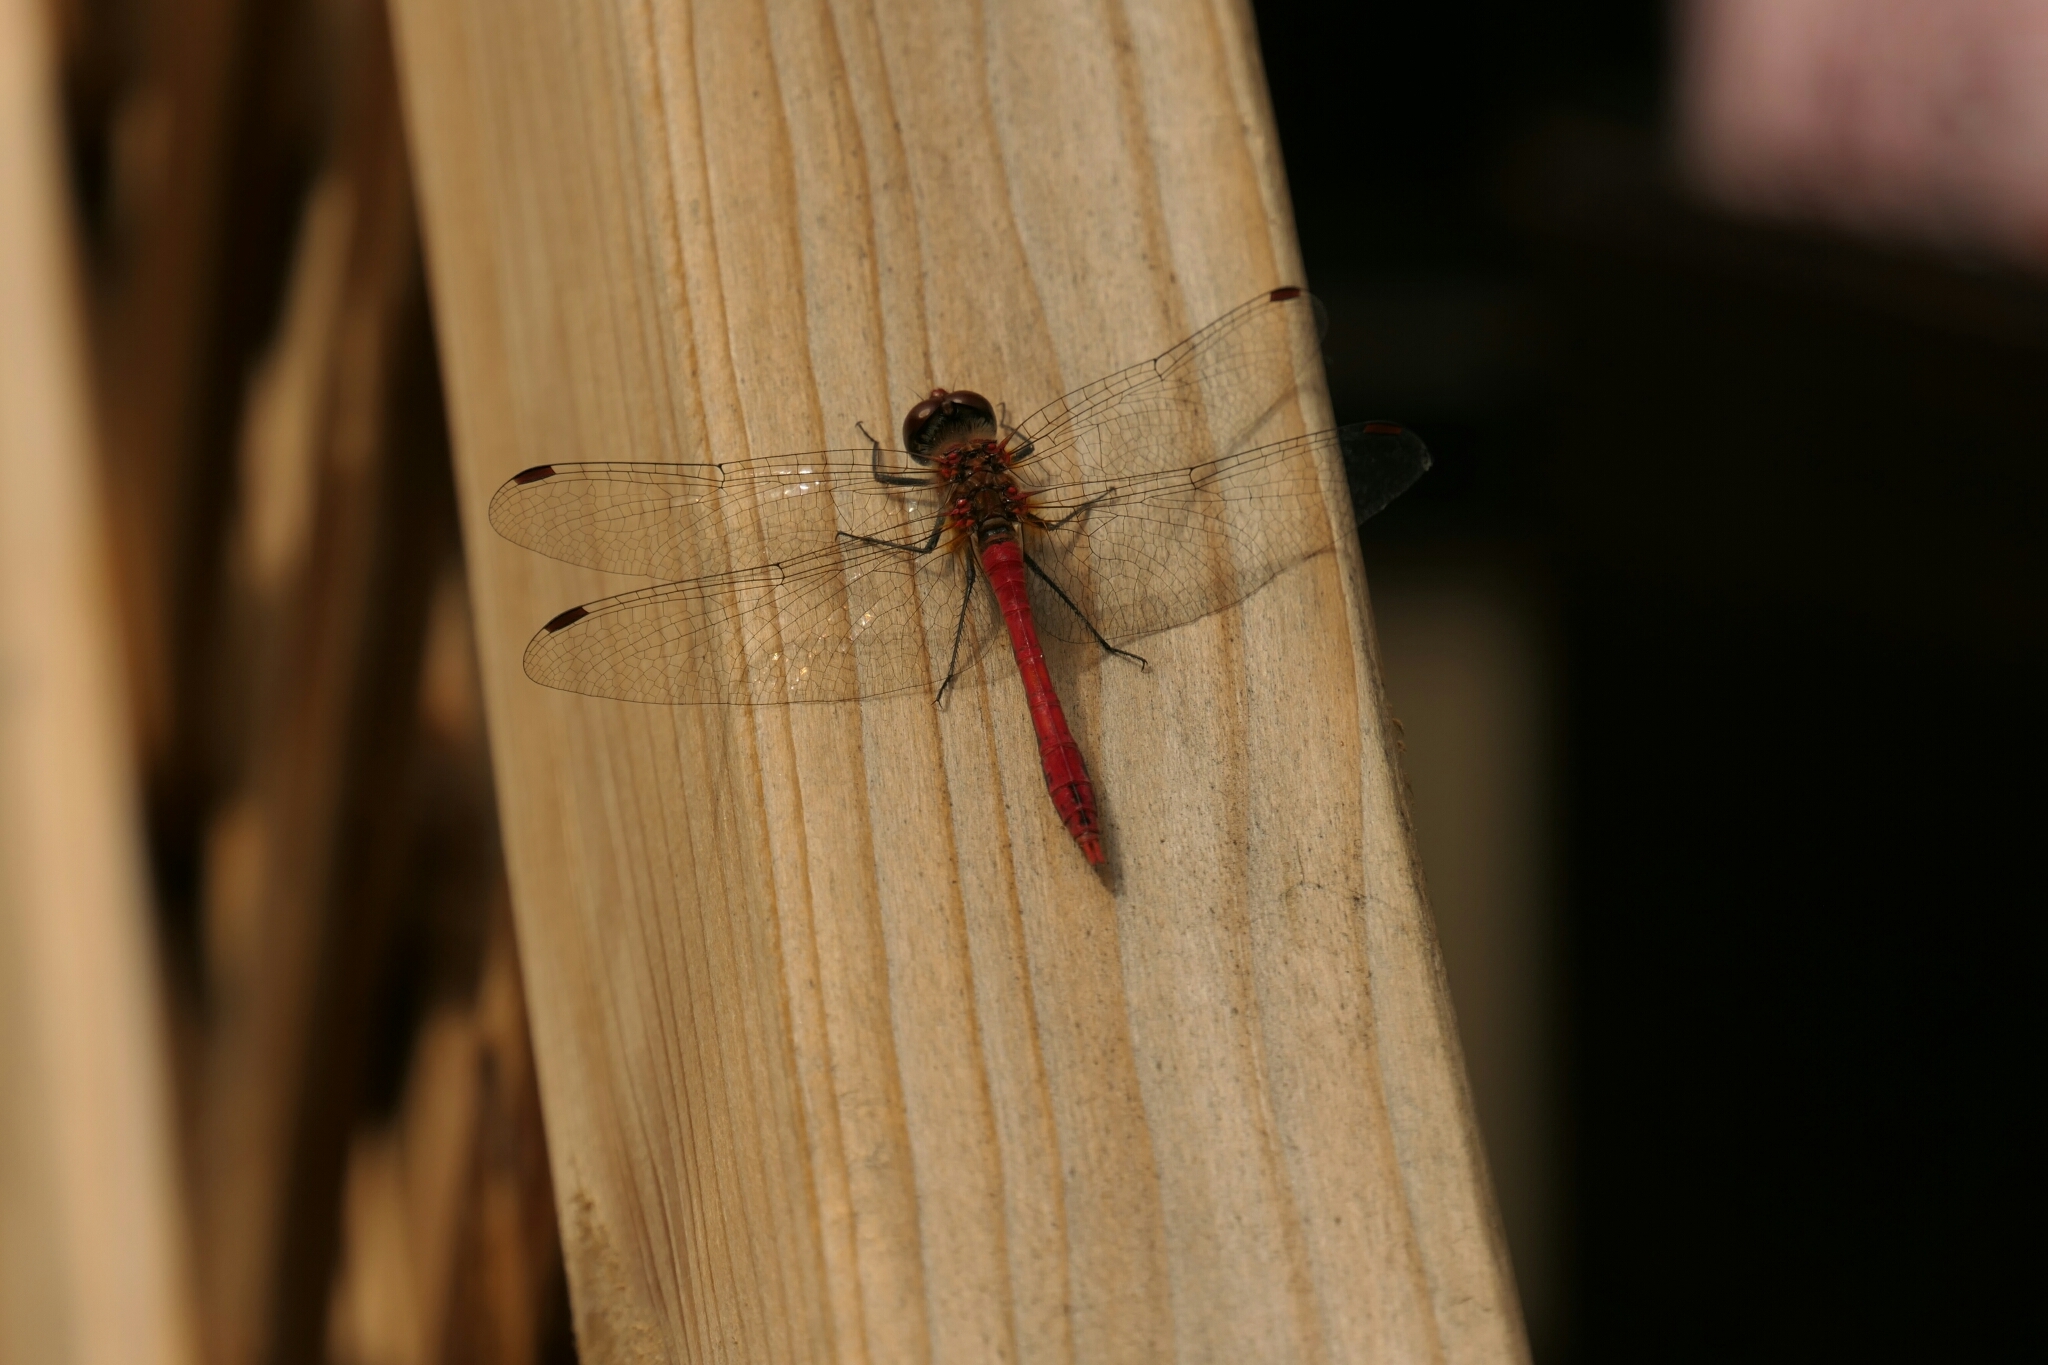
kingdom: Animalia
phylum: Arthropoda
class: Insecta
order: Odonata
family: Libellulidae
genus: Sympetrum
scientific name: Sympetrum sanguineum
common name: Ruddy darter
